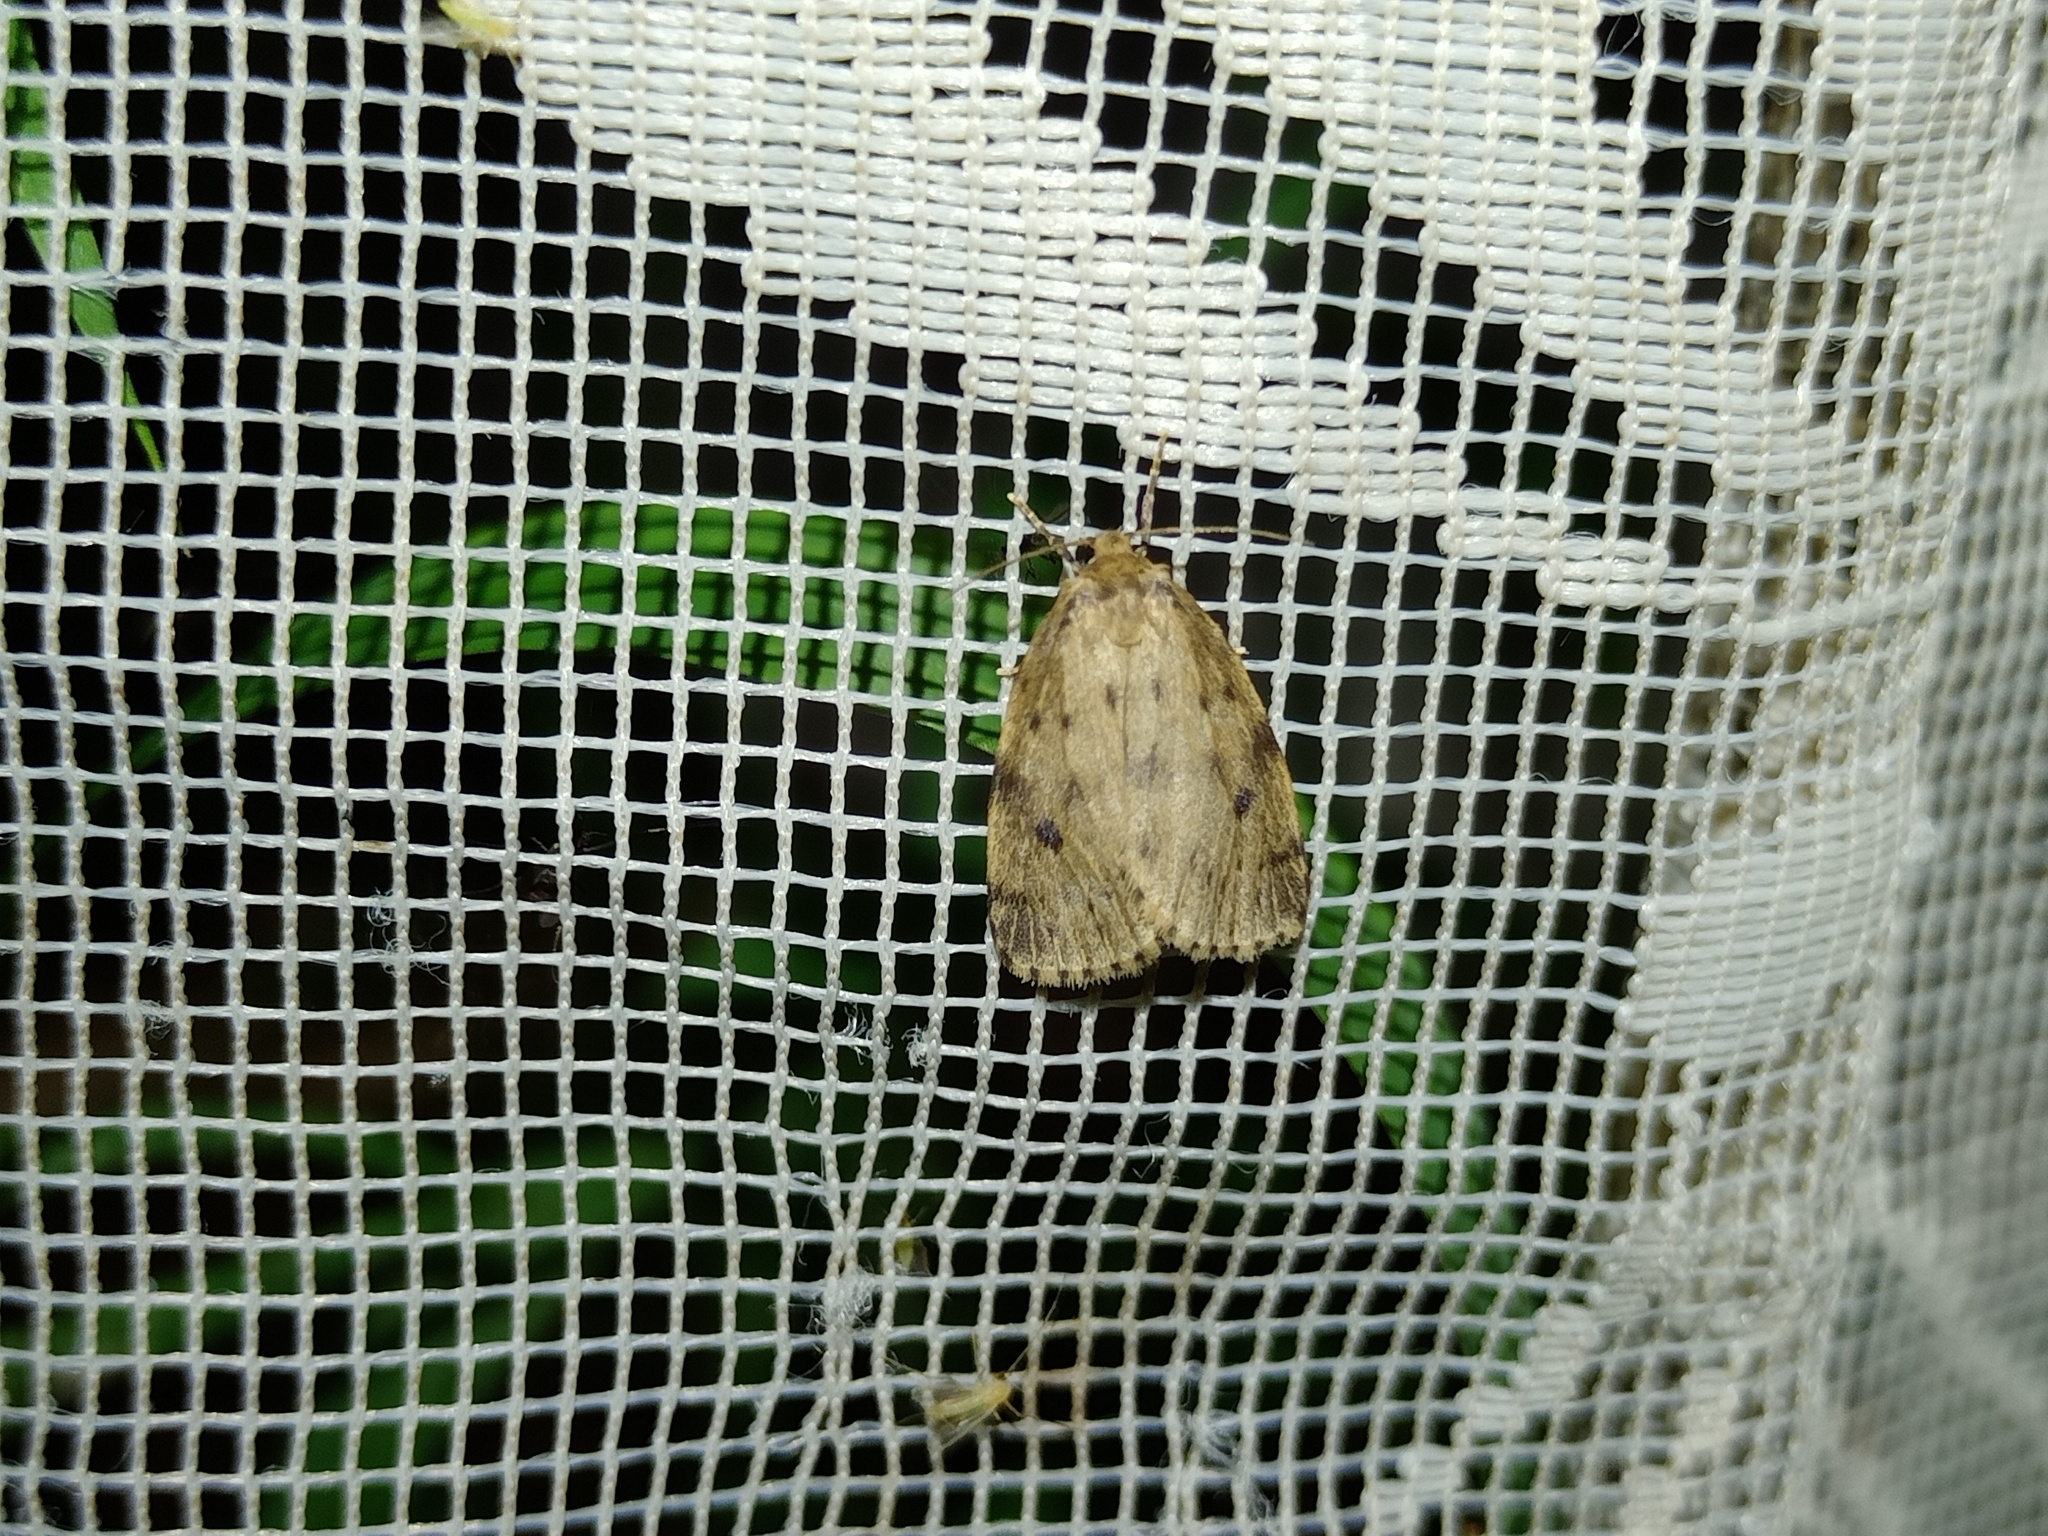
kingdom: Animalia
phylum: Arthropoda
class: Insecta
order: Lepidoptera
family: Erebidae
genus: Thumatha
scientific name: Thumatha senex
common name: Round-winged muslin
